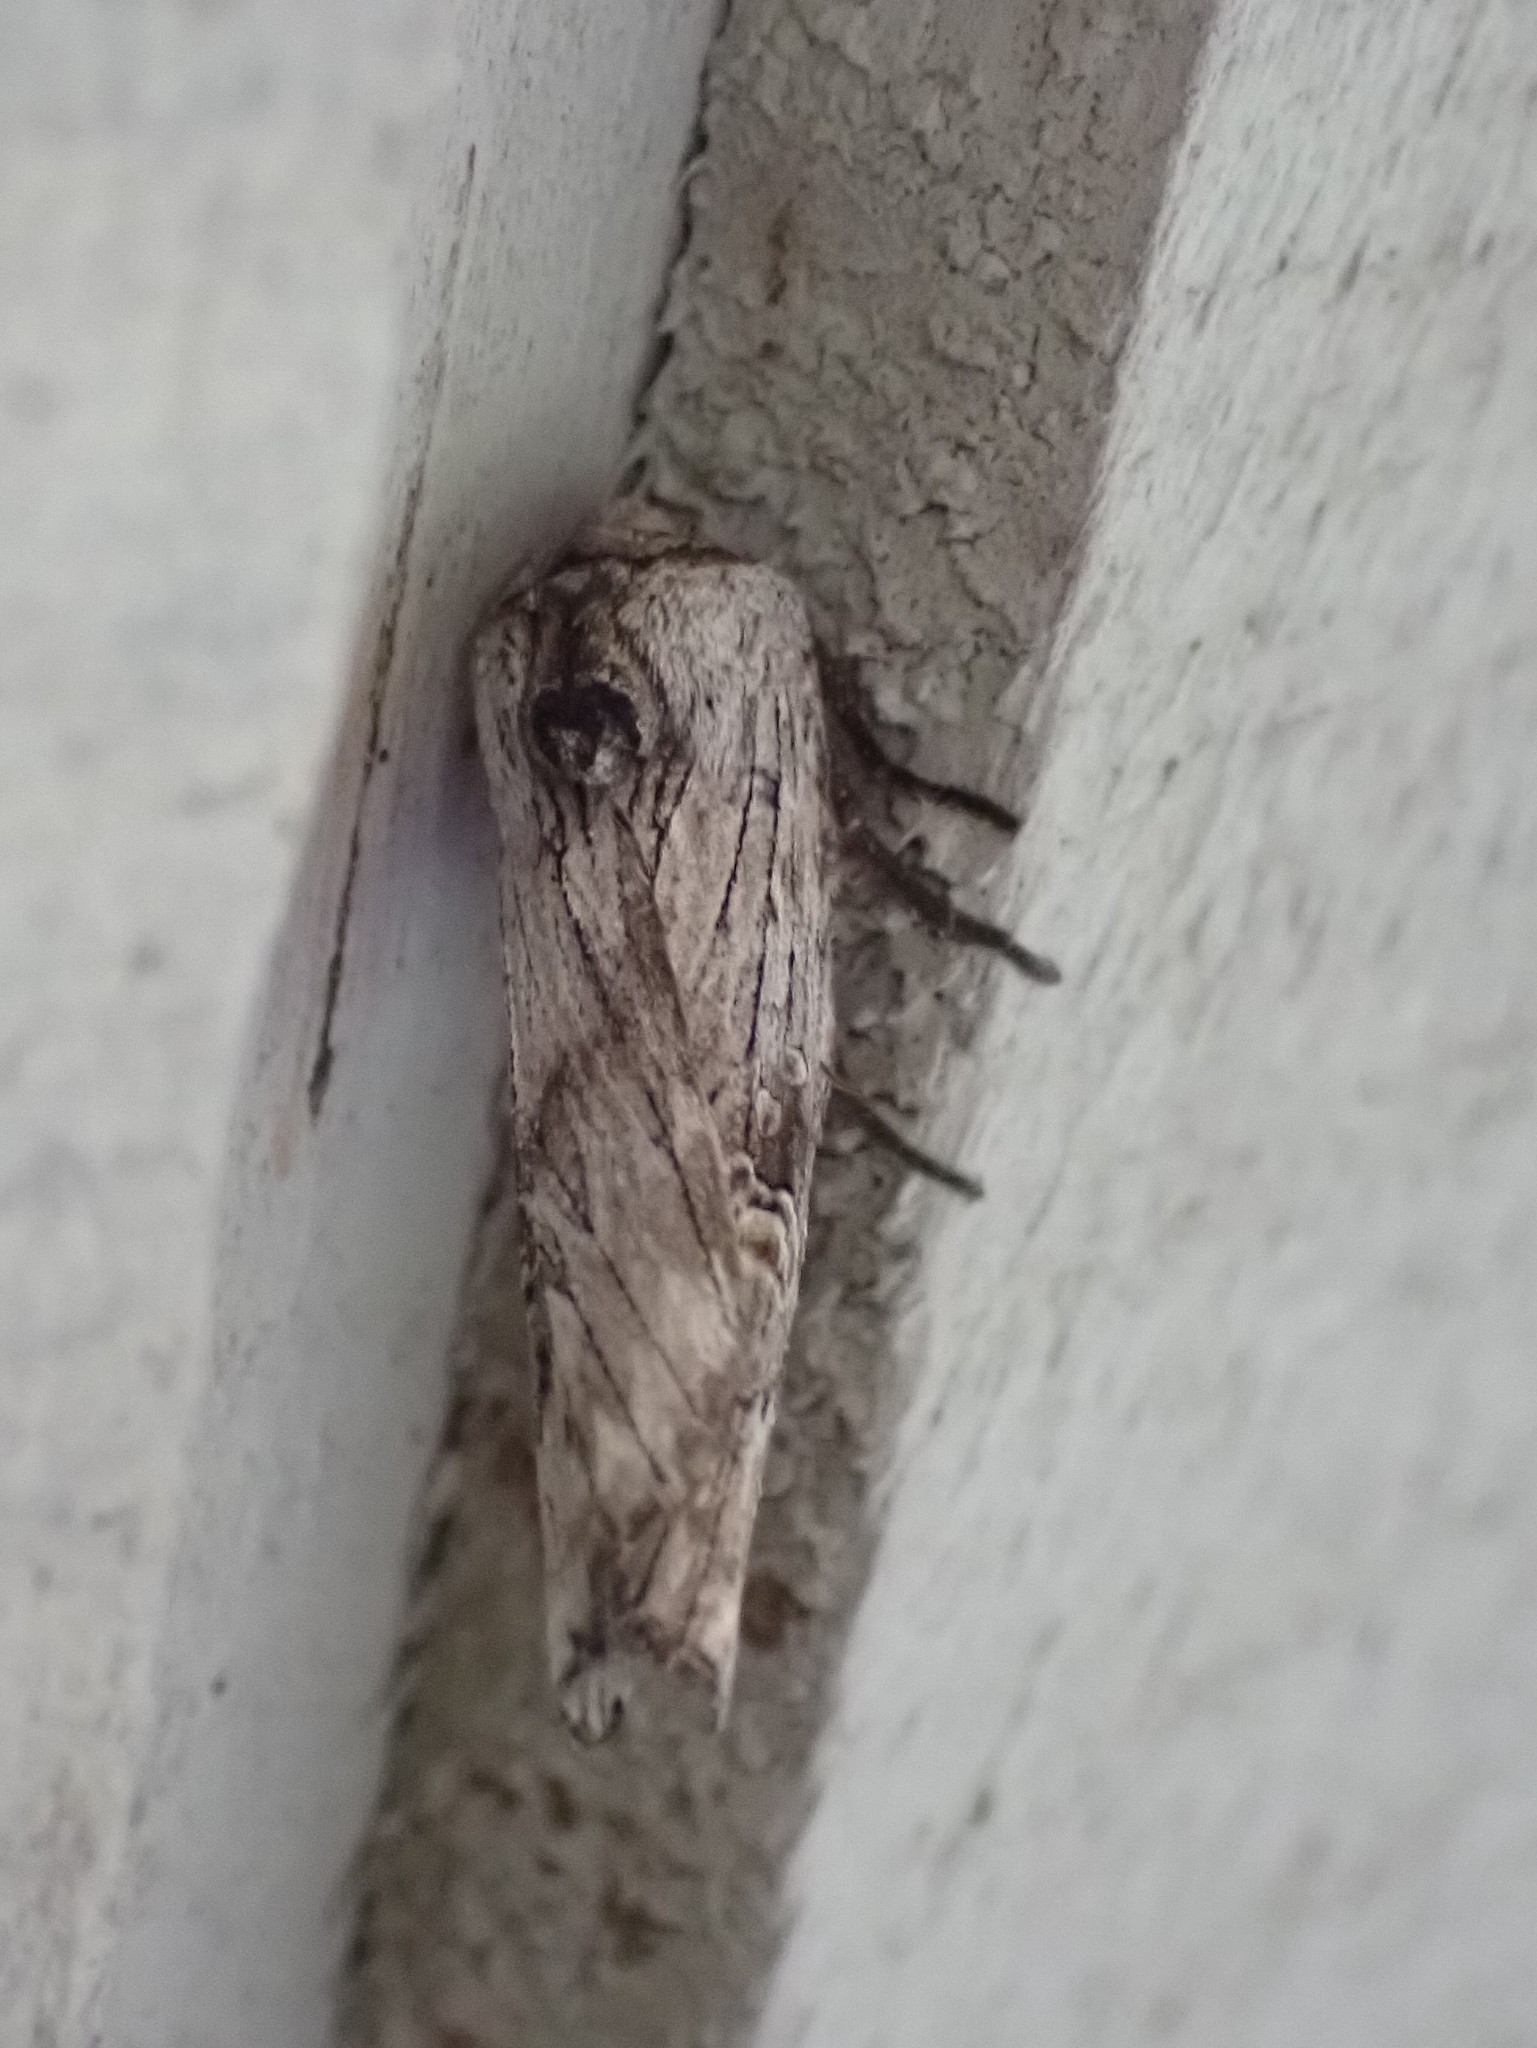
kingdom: Animalia
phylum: Arthropoda
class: Insecta
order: Lepidoptera
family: Noctuidae
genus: Xylena
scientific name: Xylena germana
